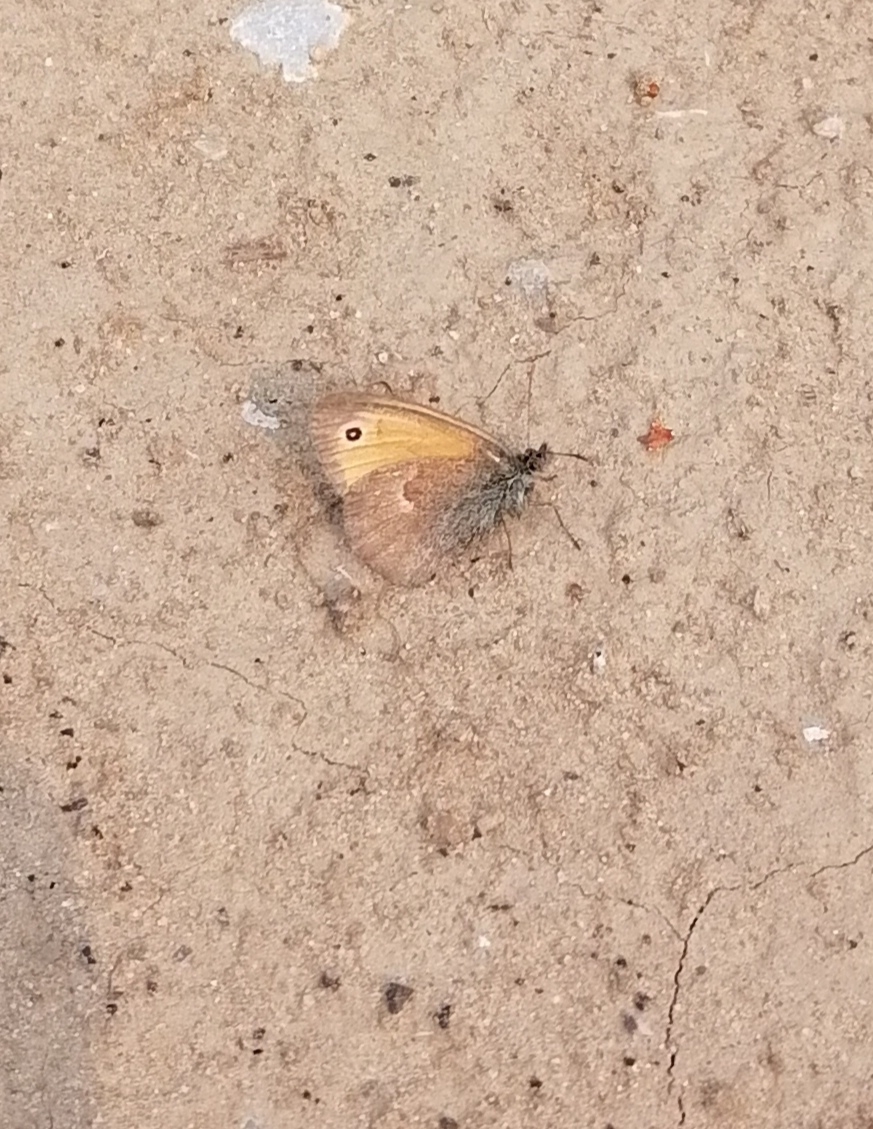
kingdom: Animalia
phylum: Arthropoda
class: Insecta
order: Lepidoptera
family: Nymphalidae
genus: Coenonympha
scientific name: Coenonympha pamphilus
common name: Small heath
